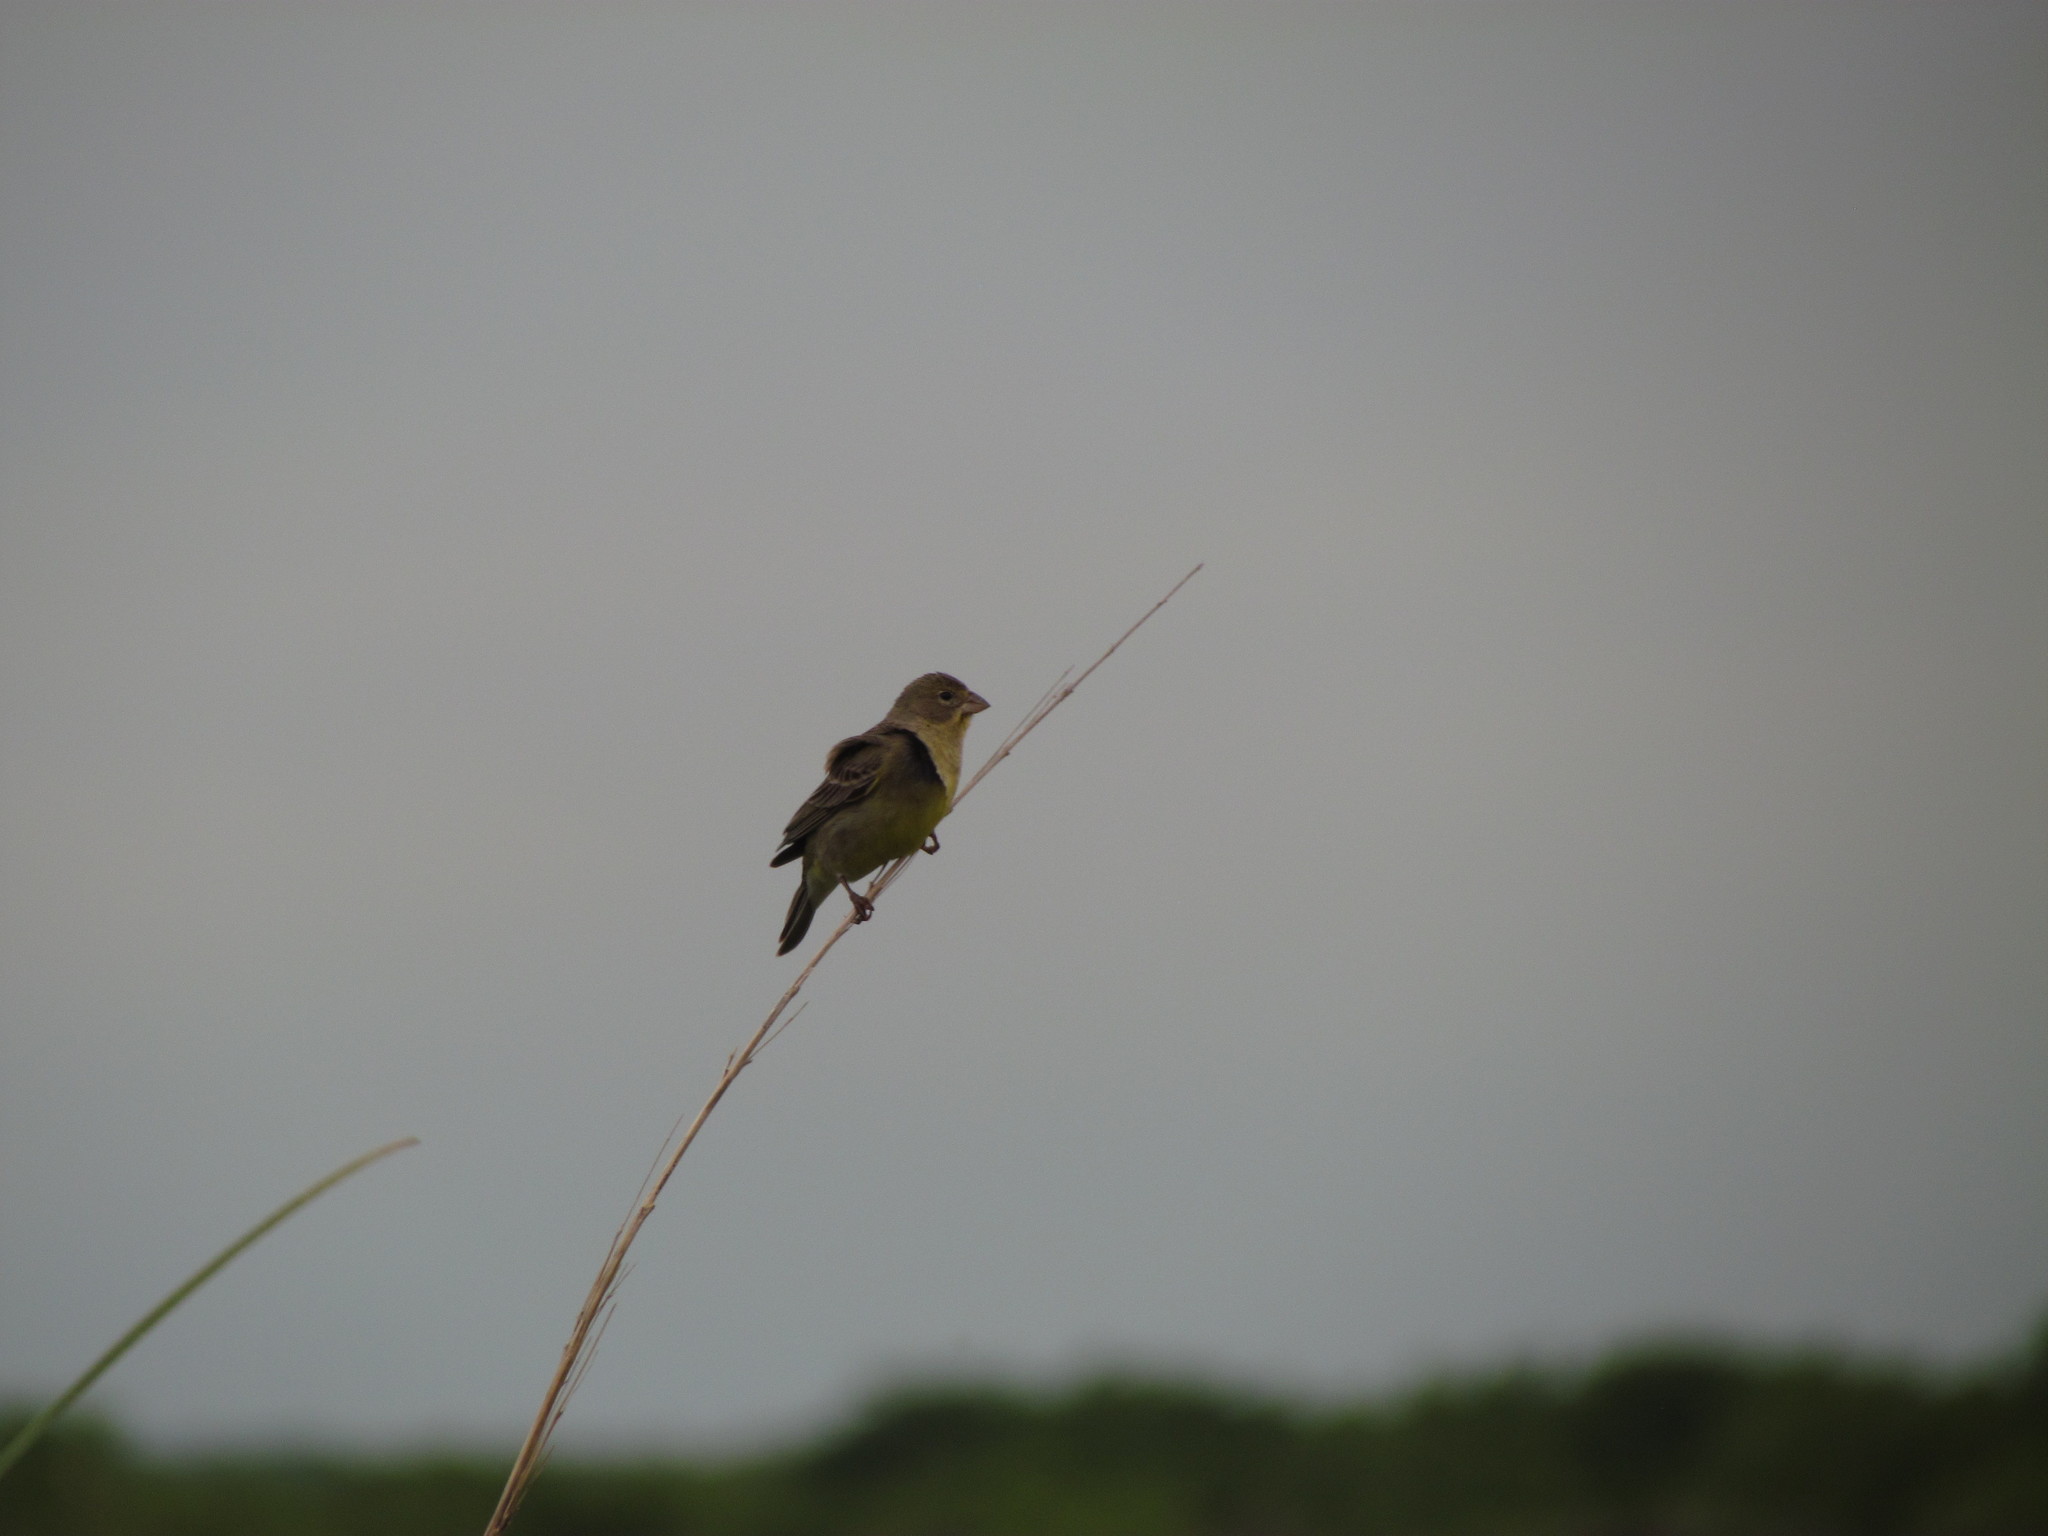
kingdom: Animalia
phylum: Chordata
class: Aves
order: Passeriformes
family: Thraupidae
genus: Sicalis
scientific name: Sicalis luteola
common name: Grassland yellow-finch
